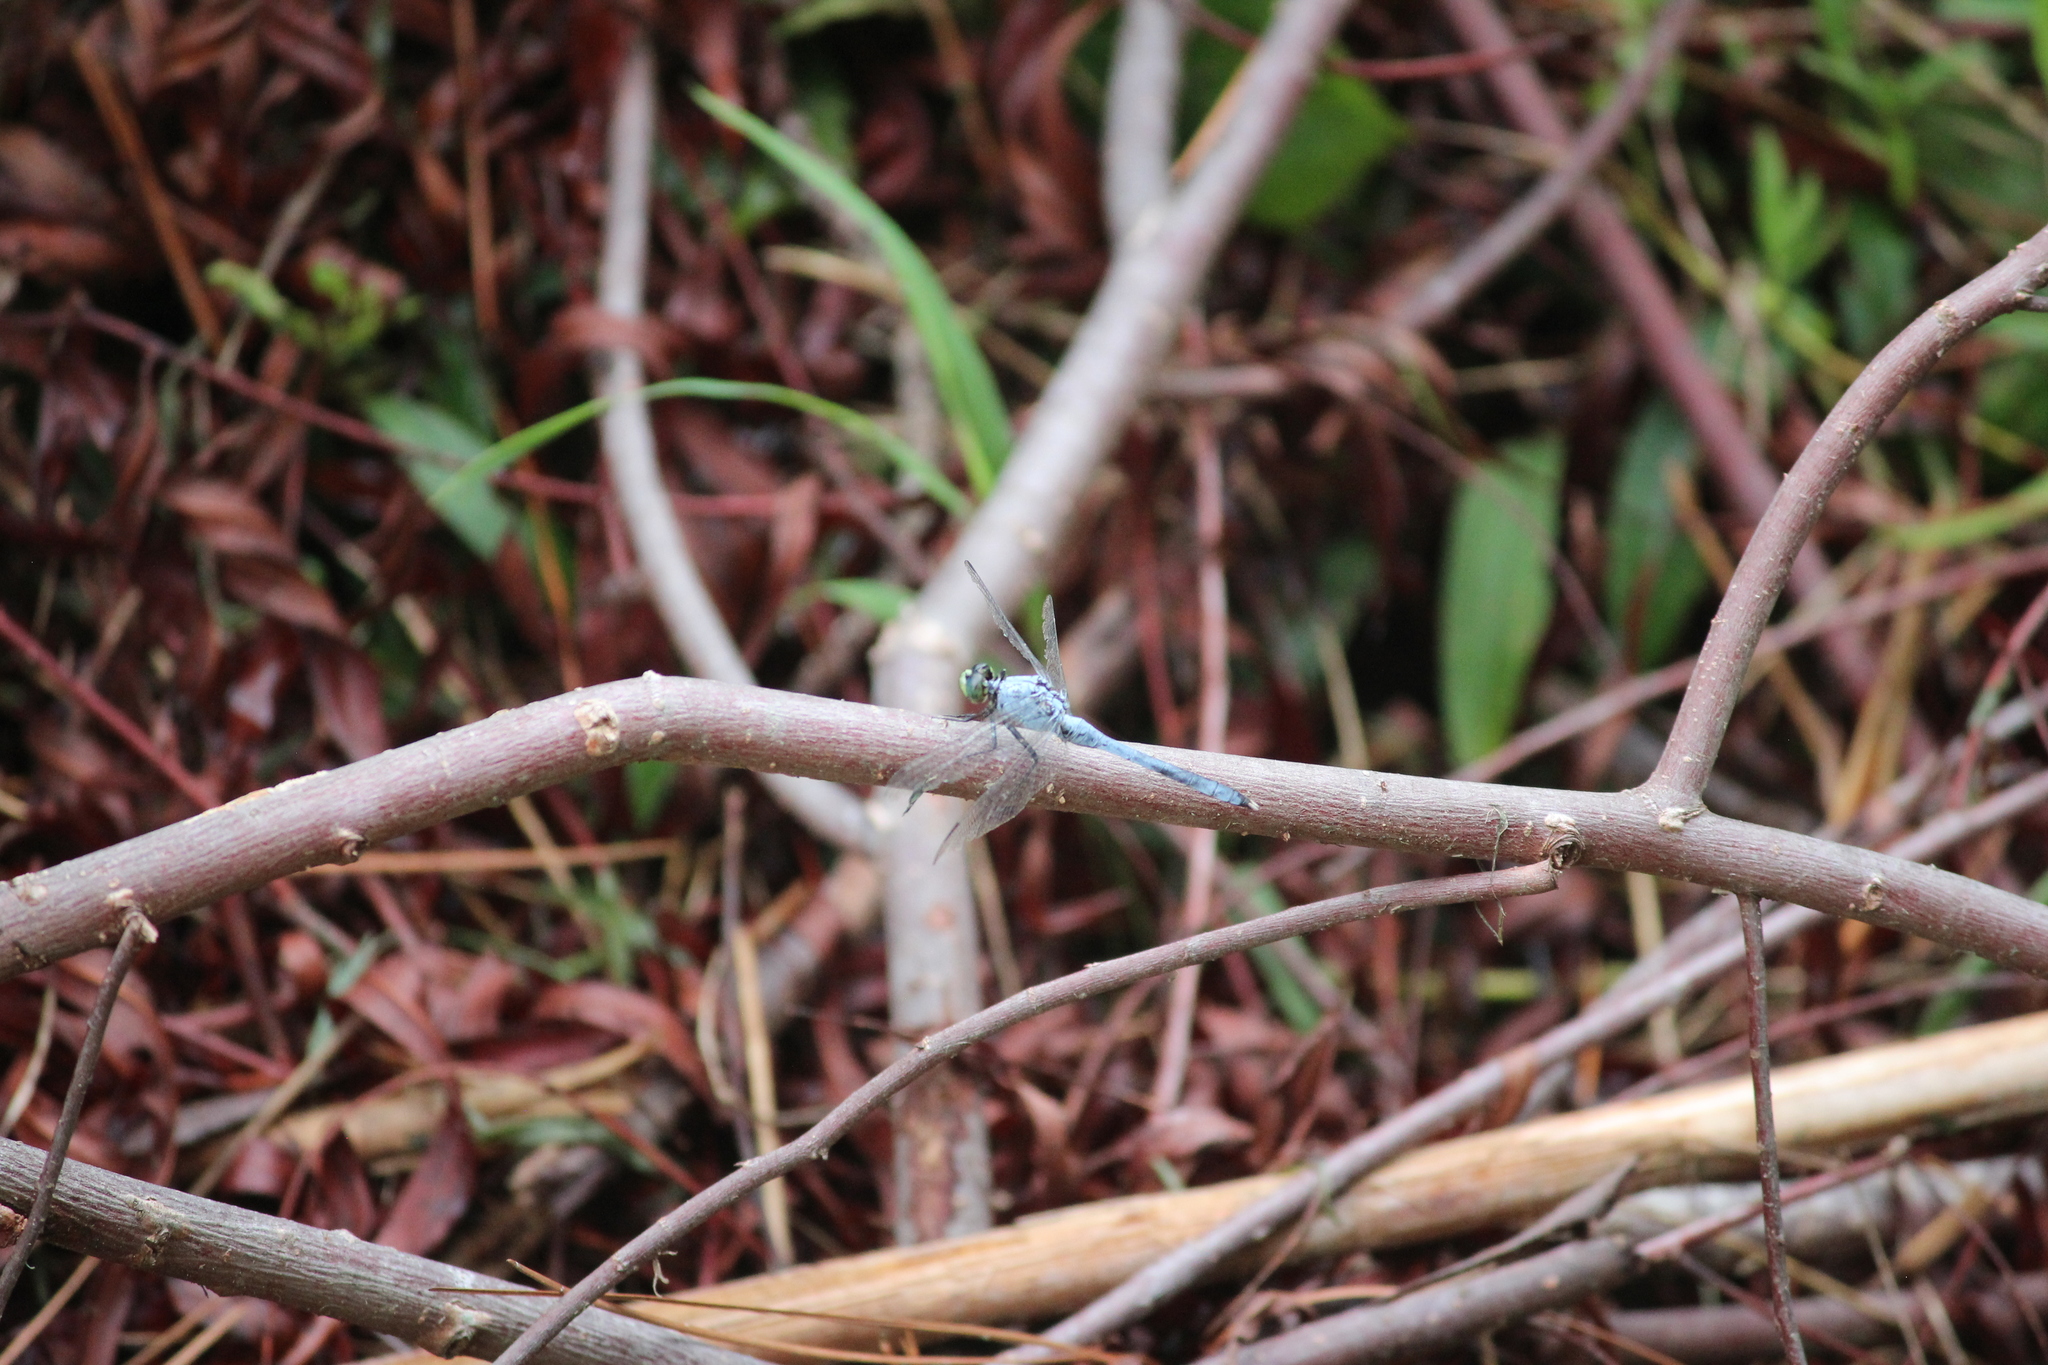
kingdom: Animalia
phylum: Arthropoda
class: Insecta
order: Odonata
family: Libellulidae
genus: Erythemis
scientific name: Erythemis simplicicollis
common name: Eastern pondhawk
